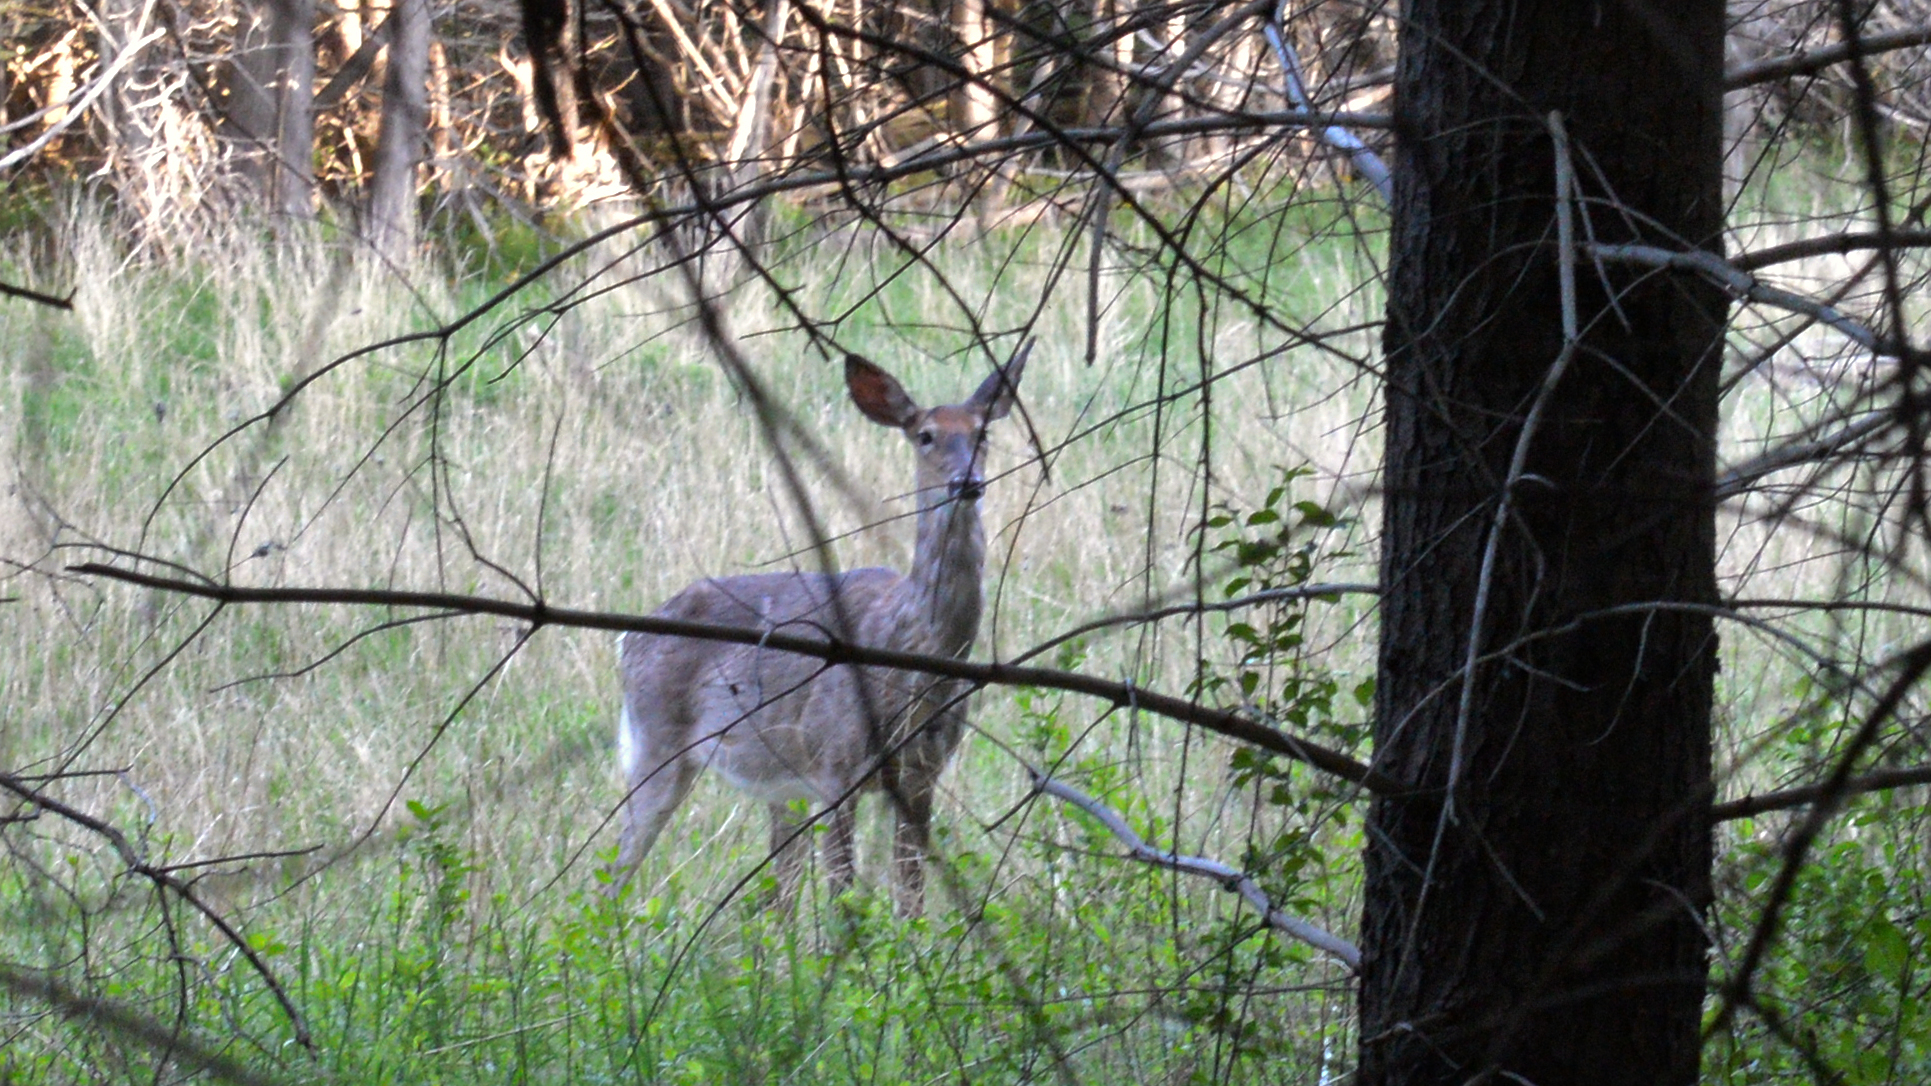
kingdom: Animalia
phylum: Chordata
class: Mammalia
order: Artiodactyla
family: Cervidae
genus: Odocoileus
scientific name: Odocoileus virginianus
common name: White-tailed deer
